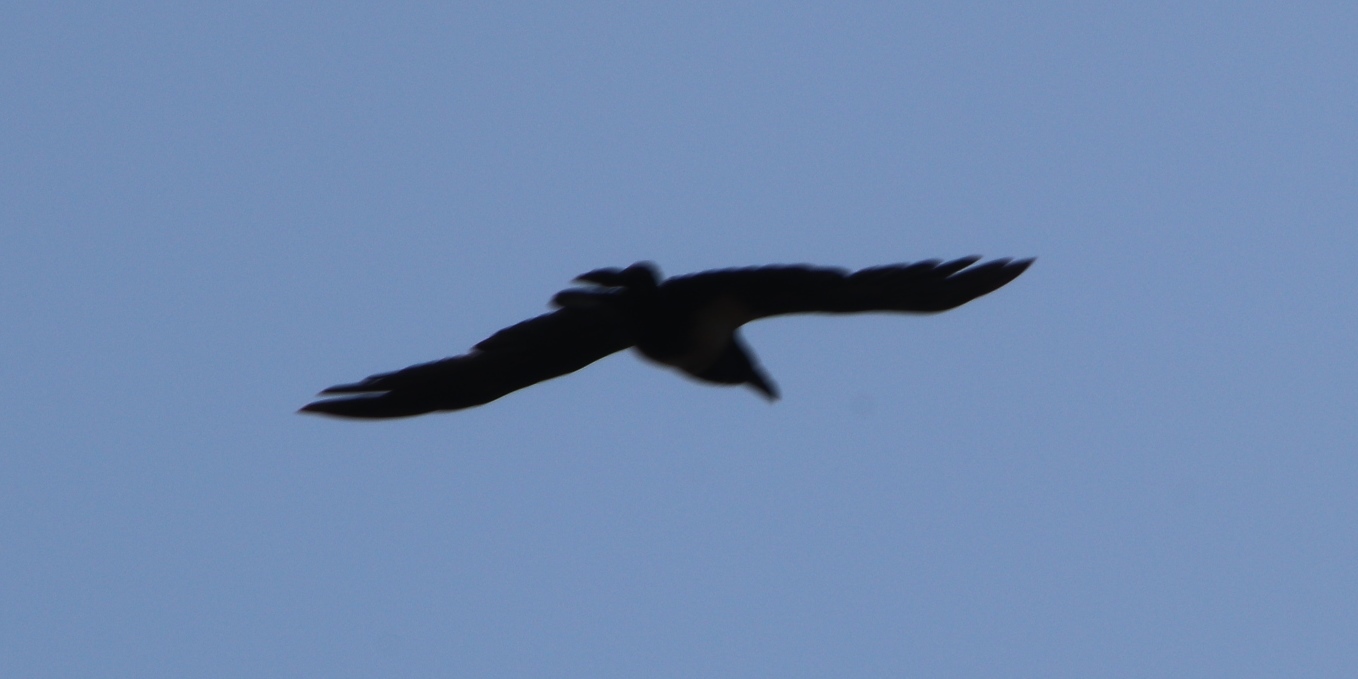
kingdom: Animalia
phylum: Chordata
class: Aves
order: Passeriformes
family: Corvidae
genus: Corvus
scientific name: Corvus albicollis
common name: White-necked raven
